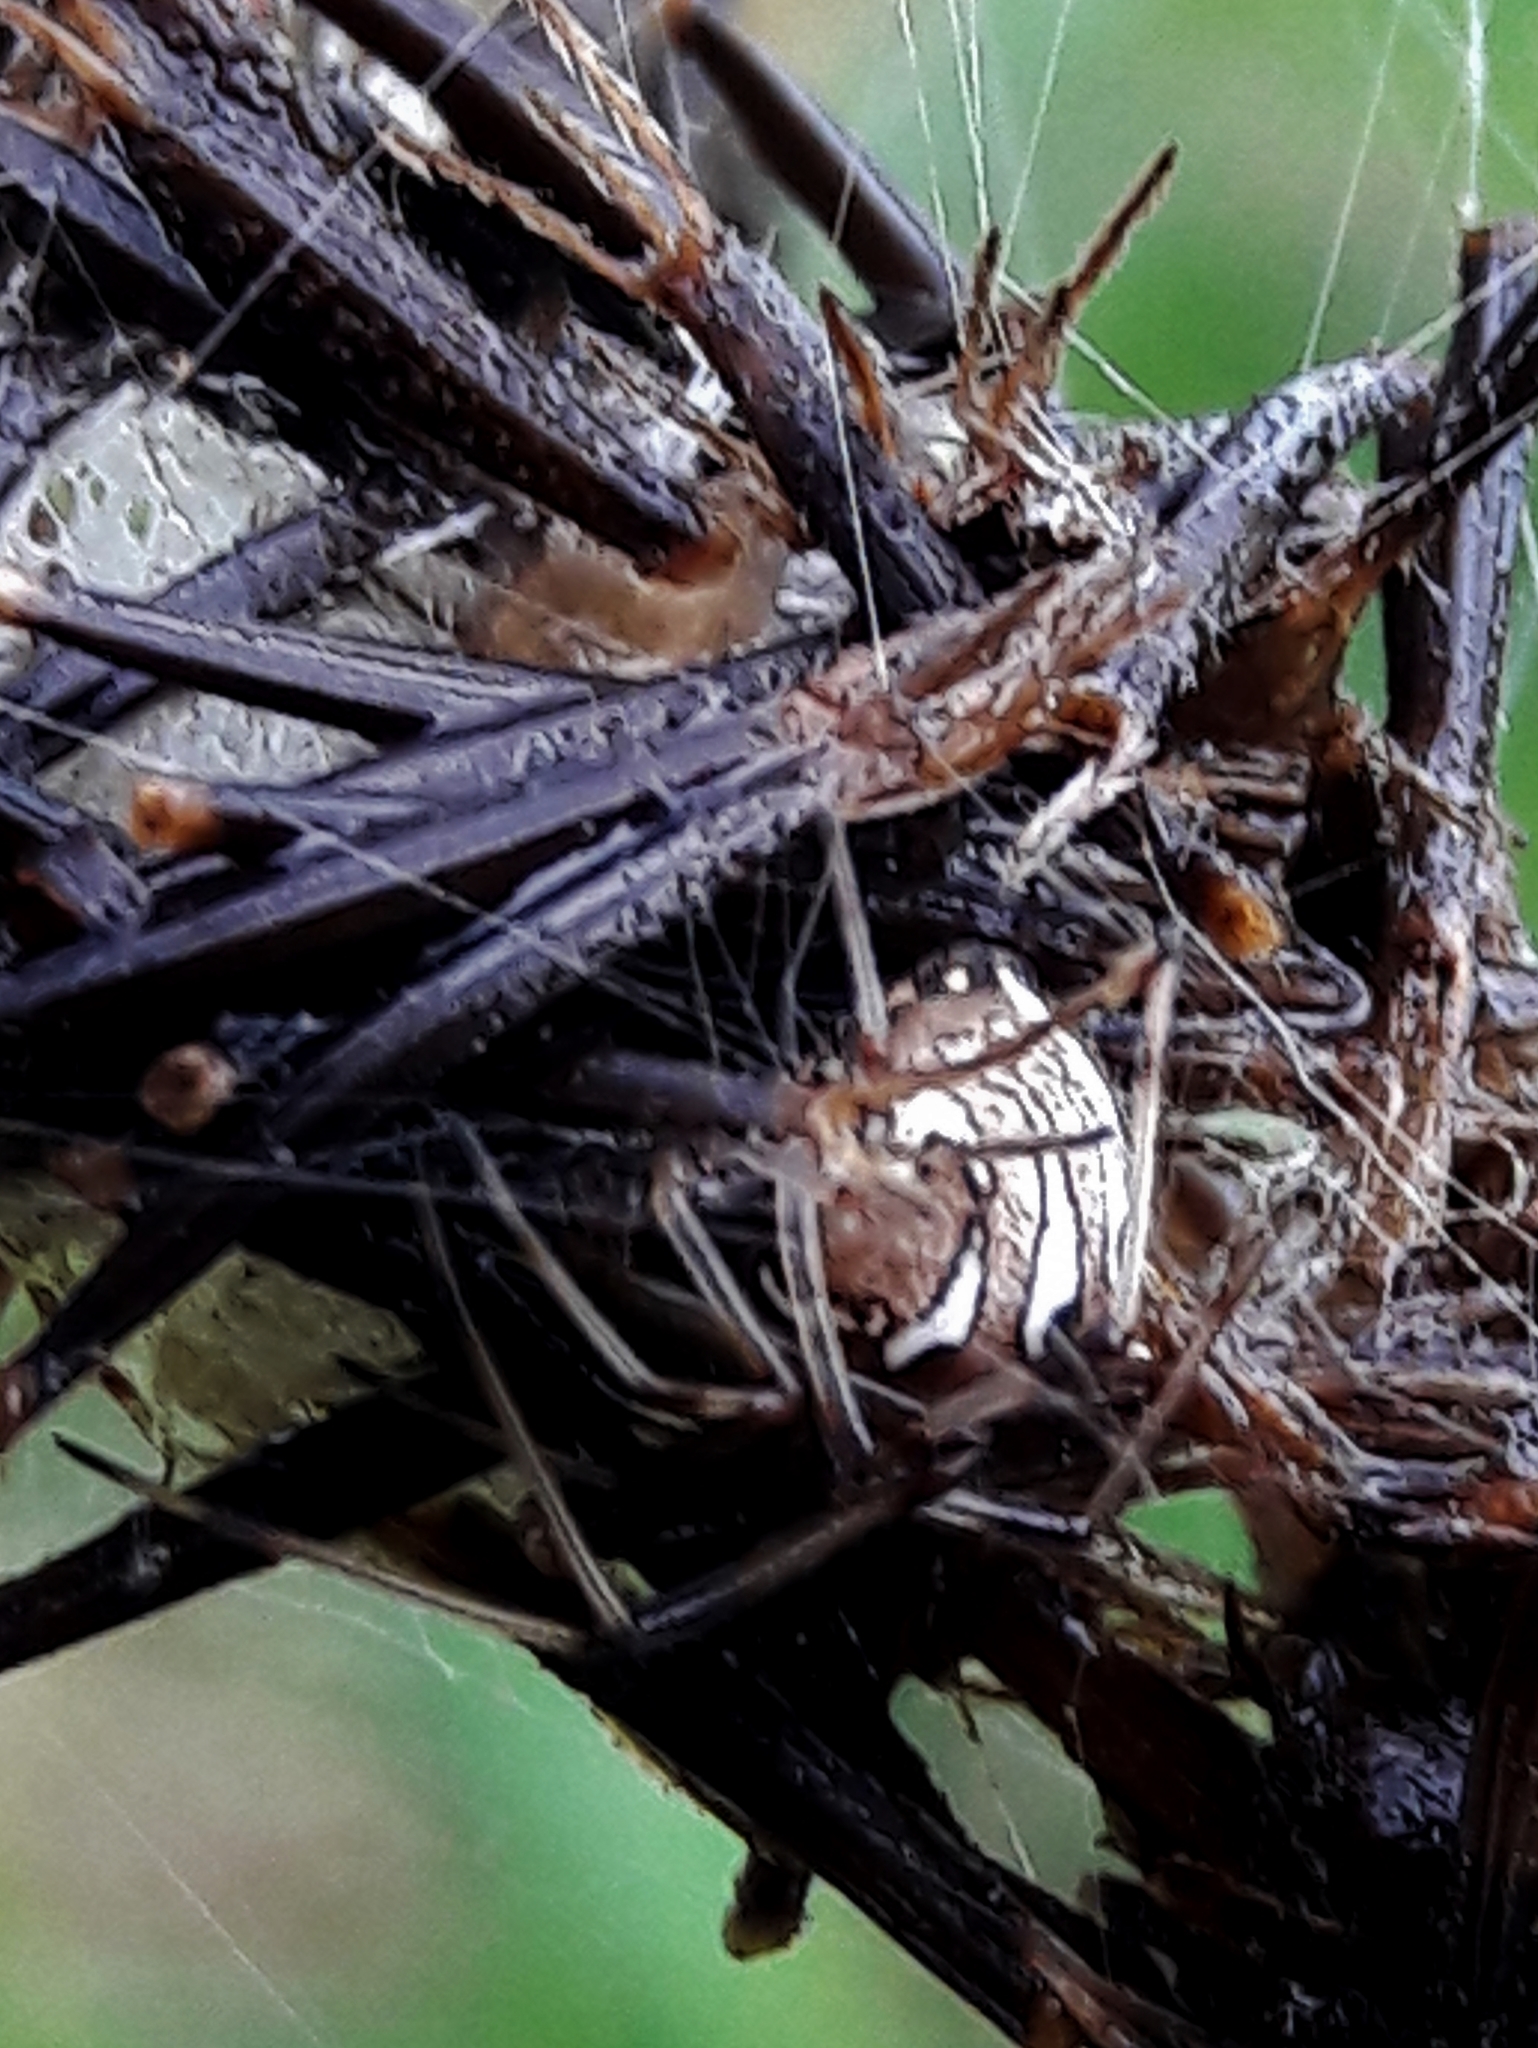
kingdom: Animalia
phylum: Arthropoda
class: Arachnida
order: Araneae
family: Theridiidae
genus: Latrodectus
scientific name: Latrodectus geometricus
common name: Brown widow spider
